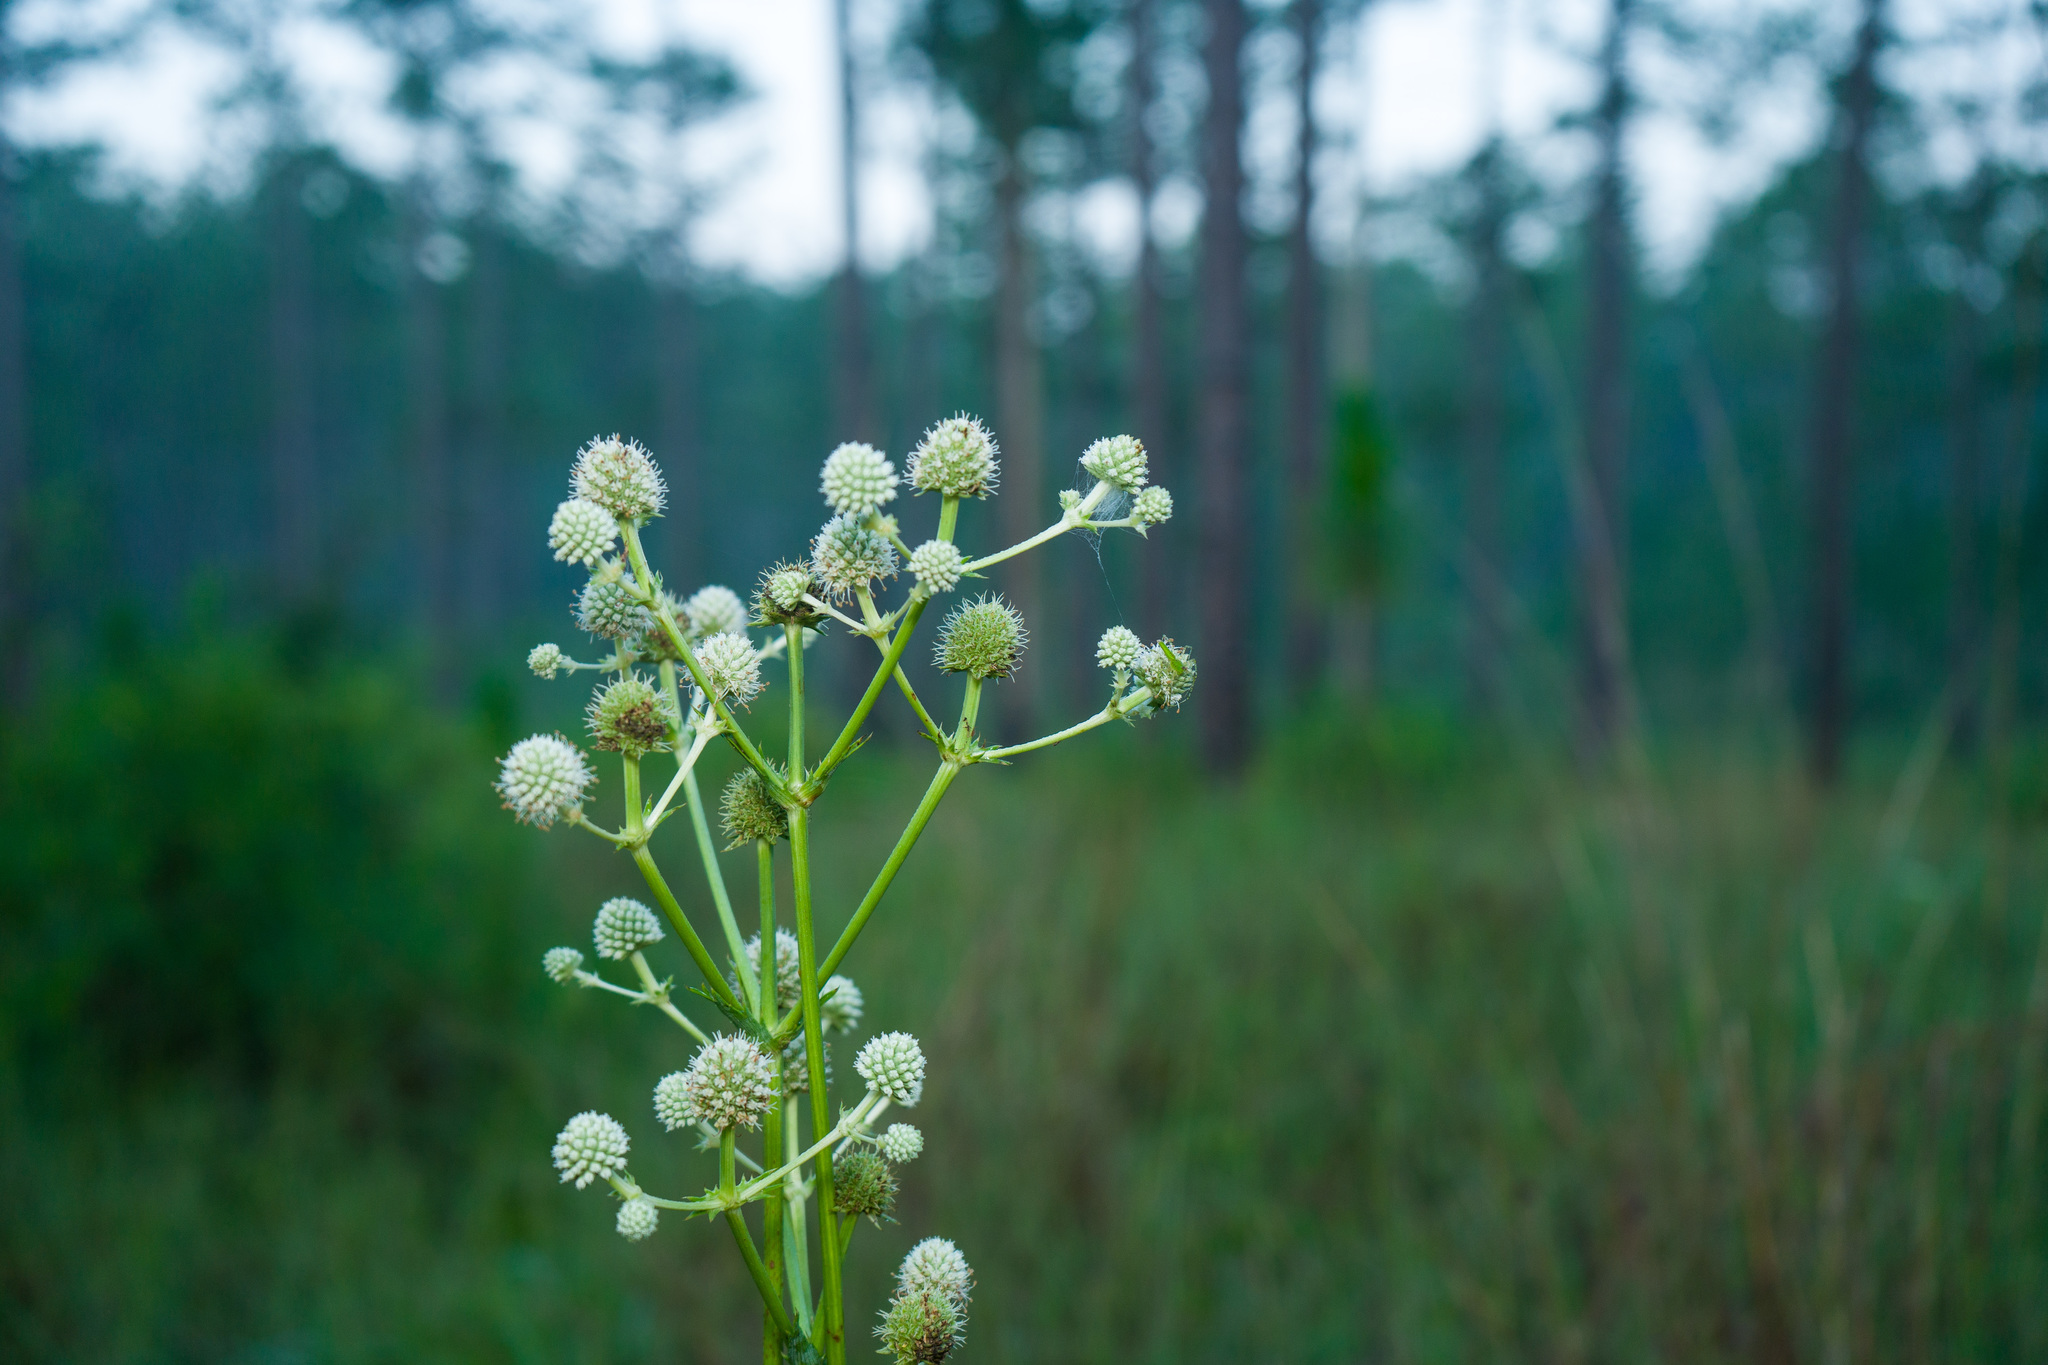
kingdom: Plantae
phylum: Tracheophyta
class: Magnoliopsida
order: Apiales
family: Apiaceae
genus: Eryngium
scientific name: Eryngium yuccifolium
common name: Button eryngo
